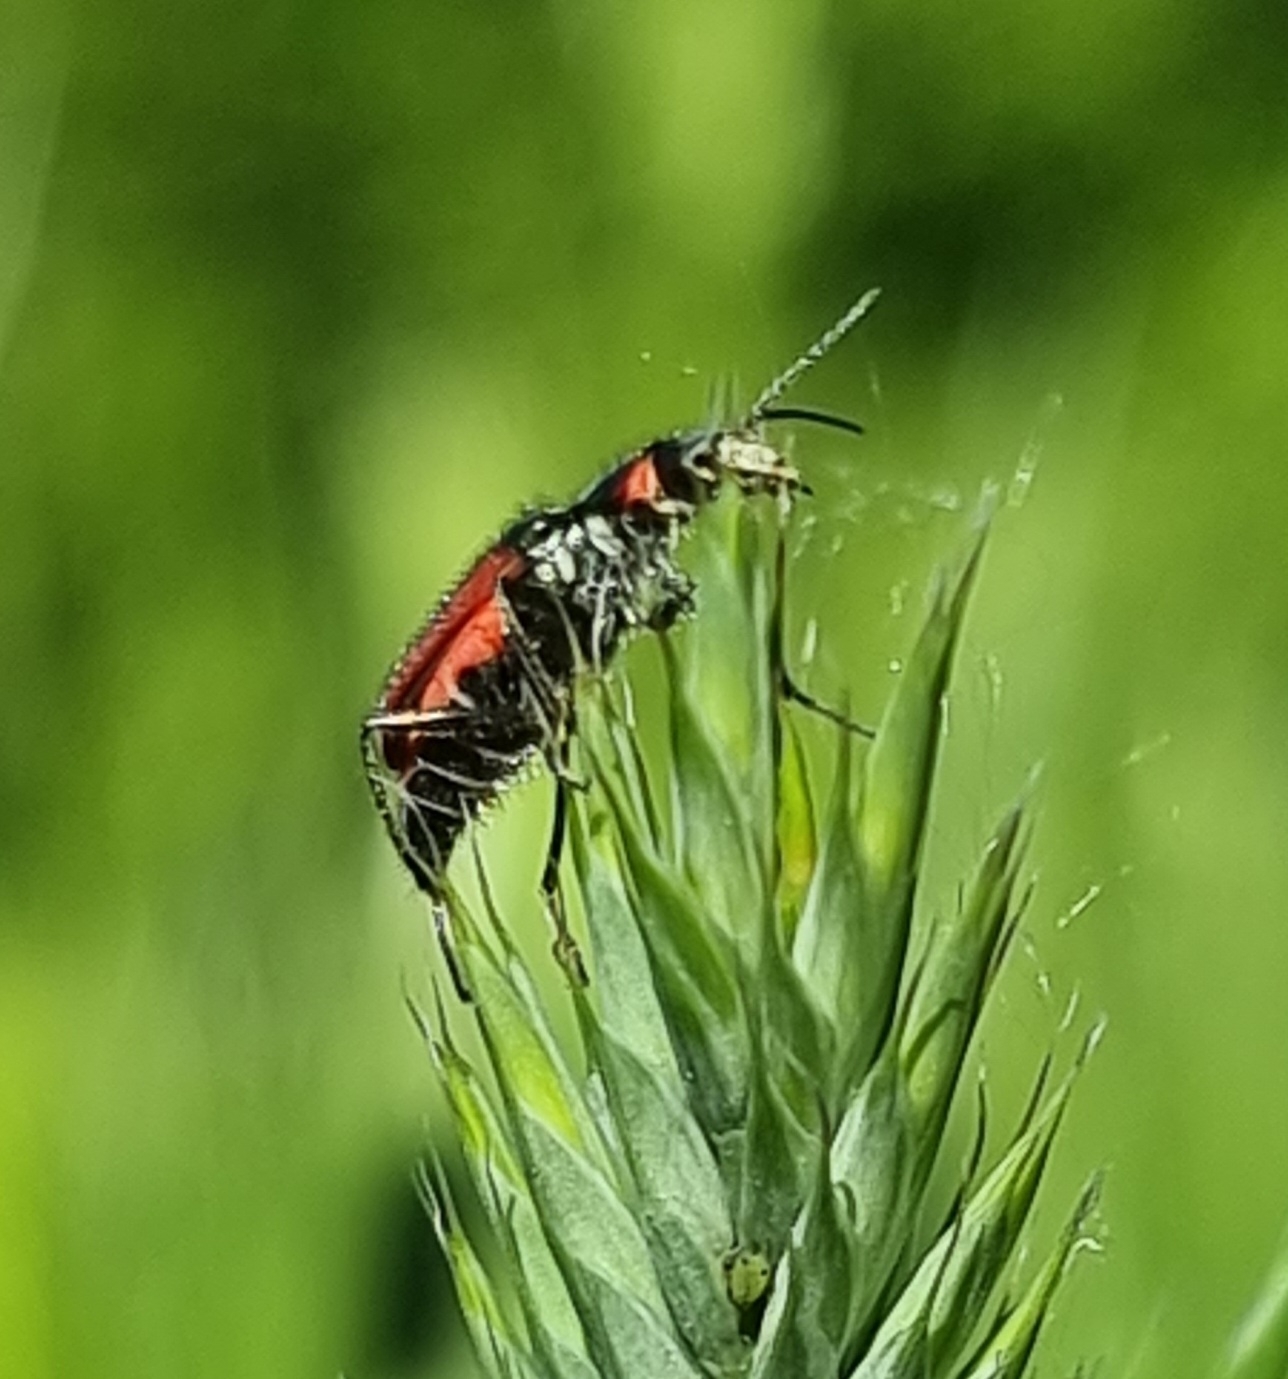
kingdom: Animalia
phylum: Arthropoda
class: Insecta
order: Coleoptera
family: Melyridae
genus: Malachius
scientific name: Malachius aeneus
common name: Scarlet malachite beetle
